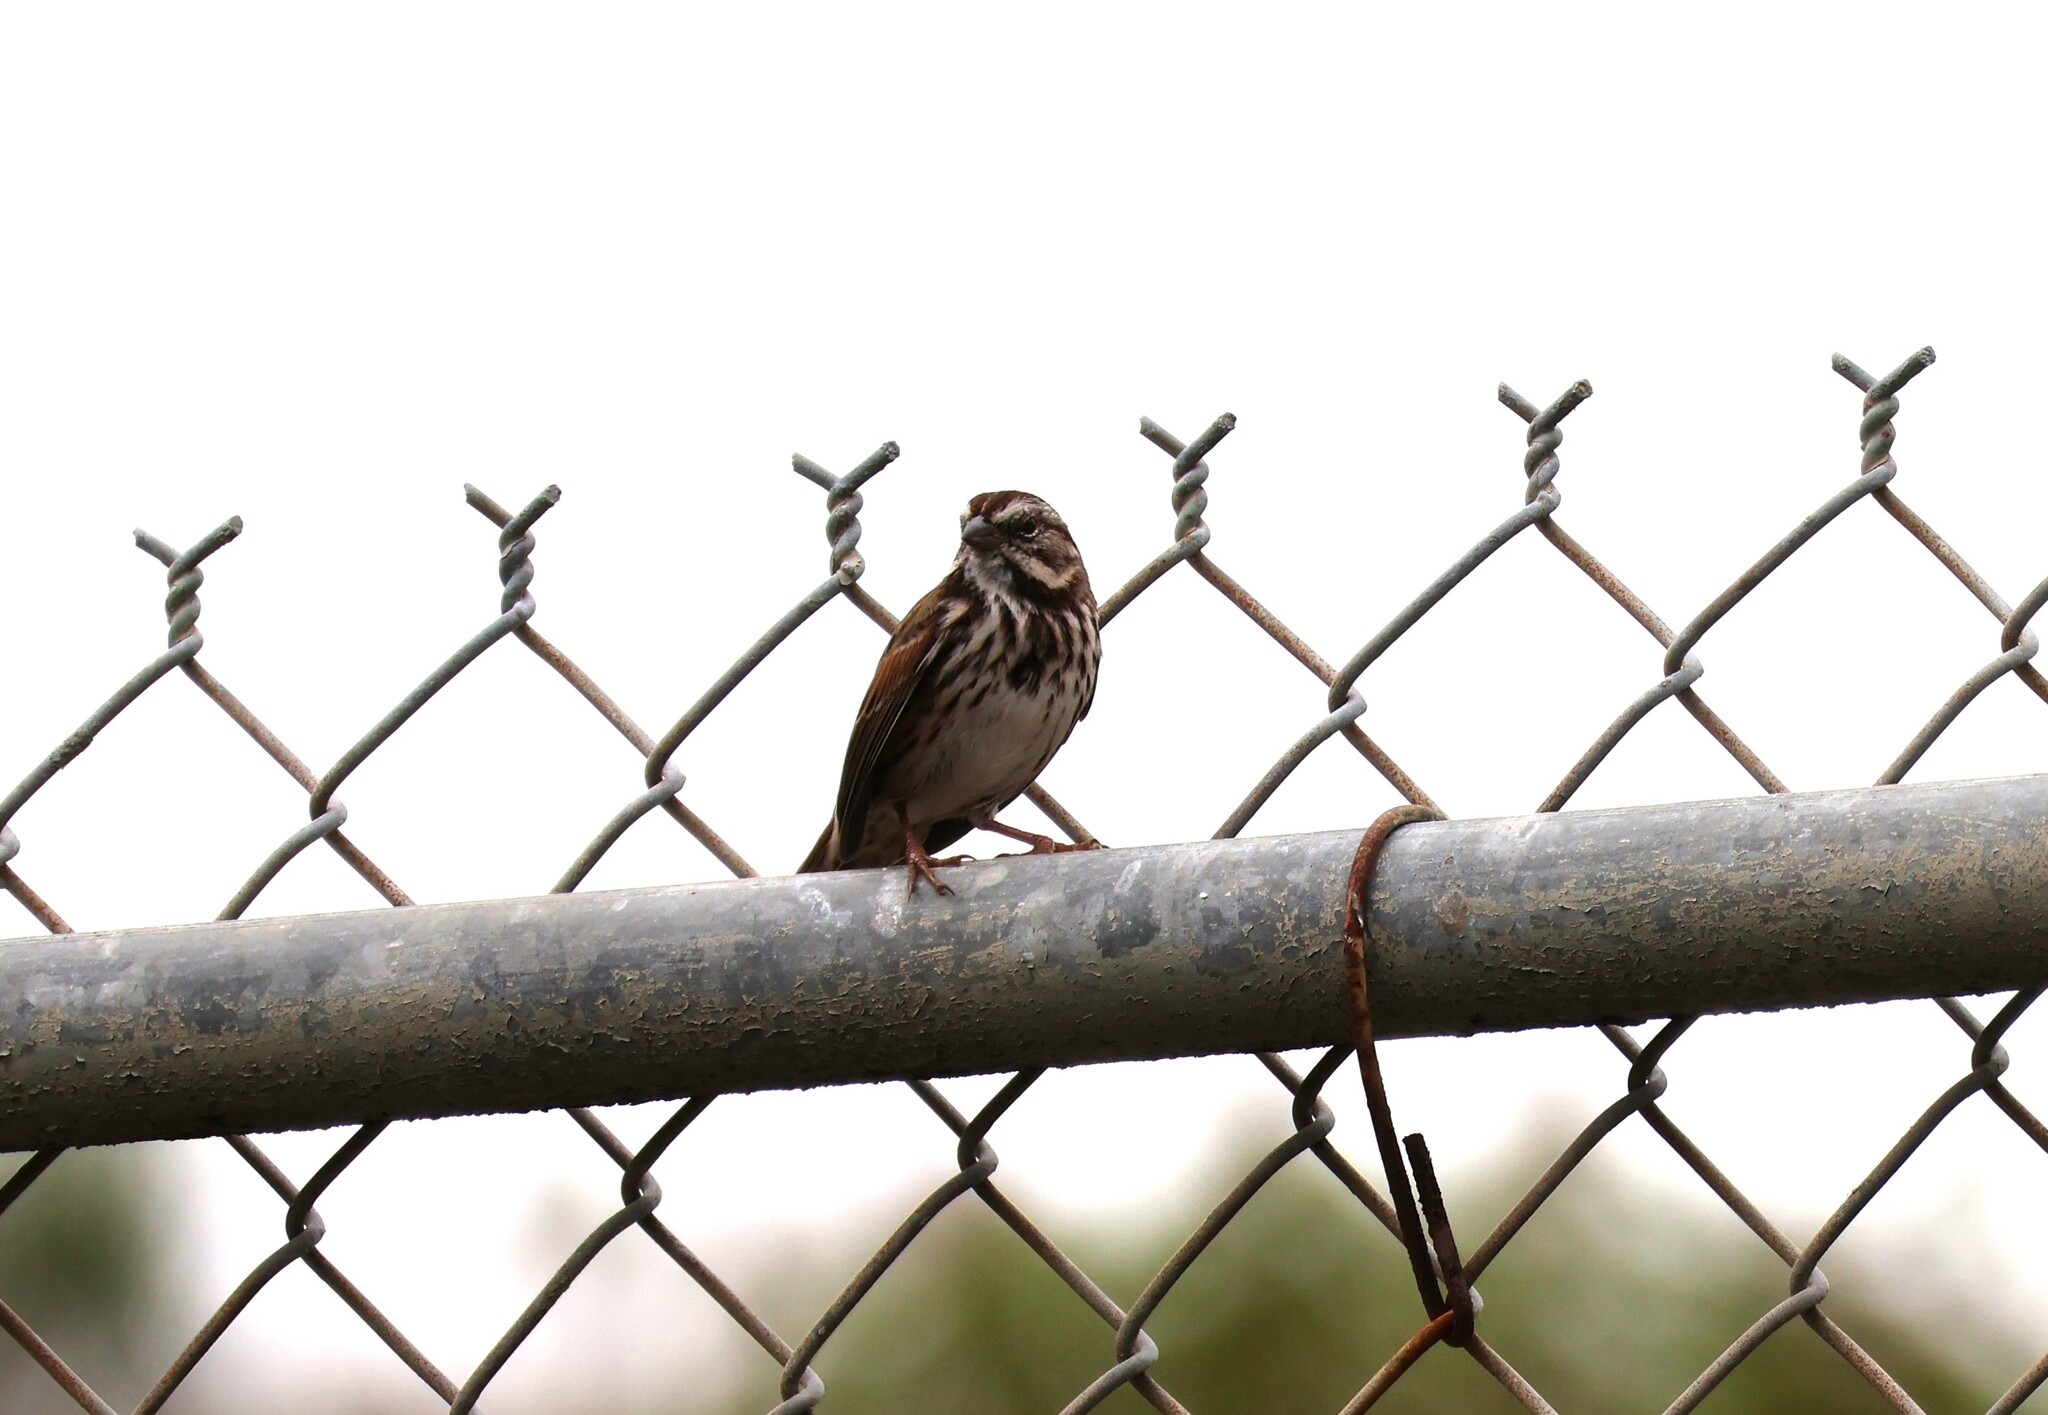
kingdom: Animalia
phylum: Chordata
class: Aves
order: Passeriformes
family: Passerellidae
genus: Melospiza
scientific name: Melospiza melodia
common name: Song sparrow
